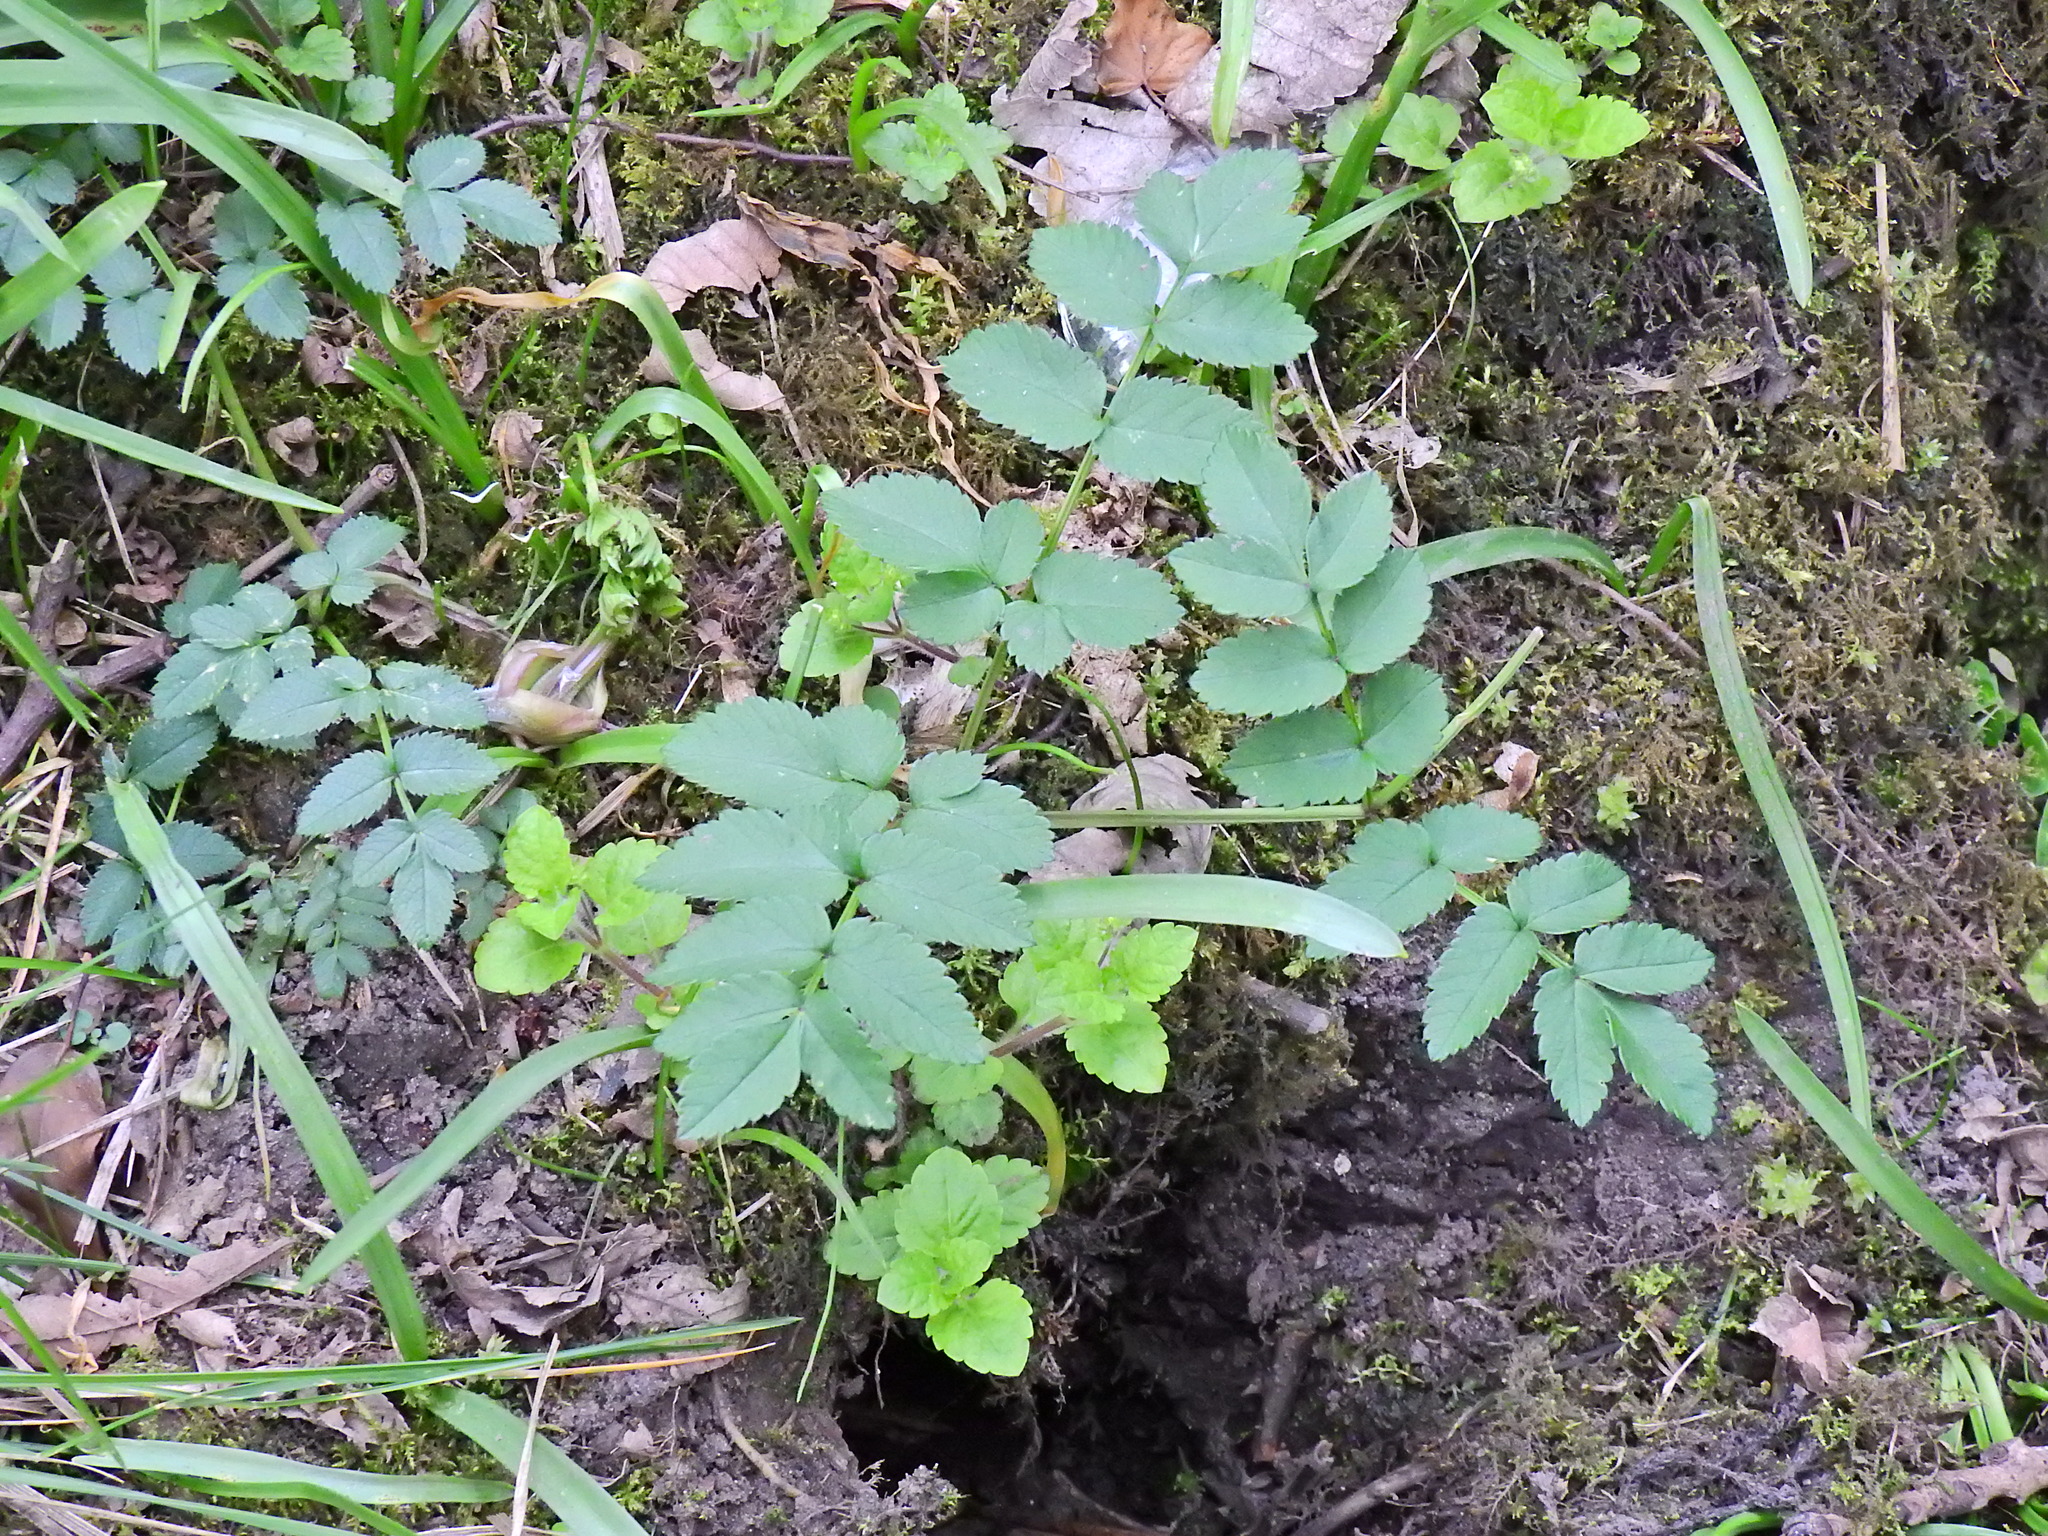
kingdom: Plantae
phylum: Tracheophyta
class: Magnoliopsida
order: Apiales
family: Apiaceae
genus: Angelica
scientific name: Angelica sylvestris
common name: Wild angelica
